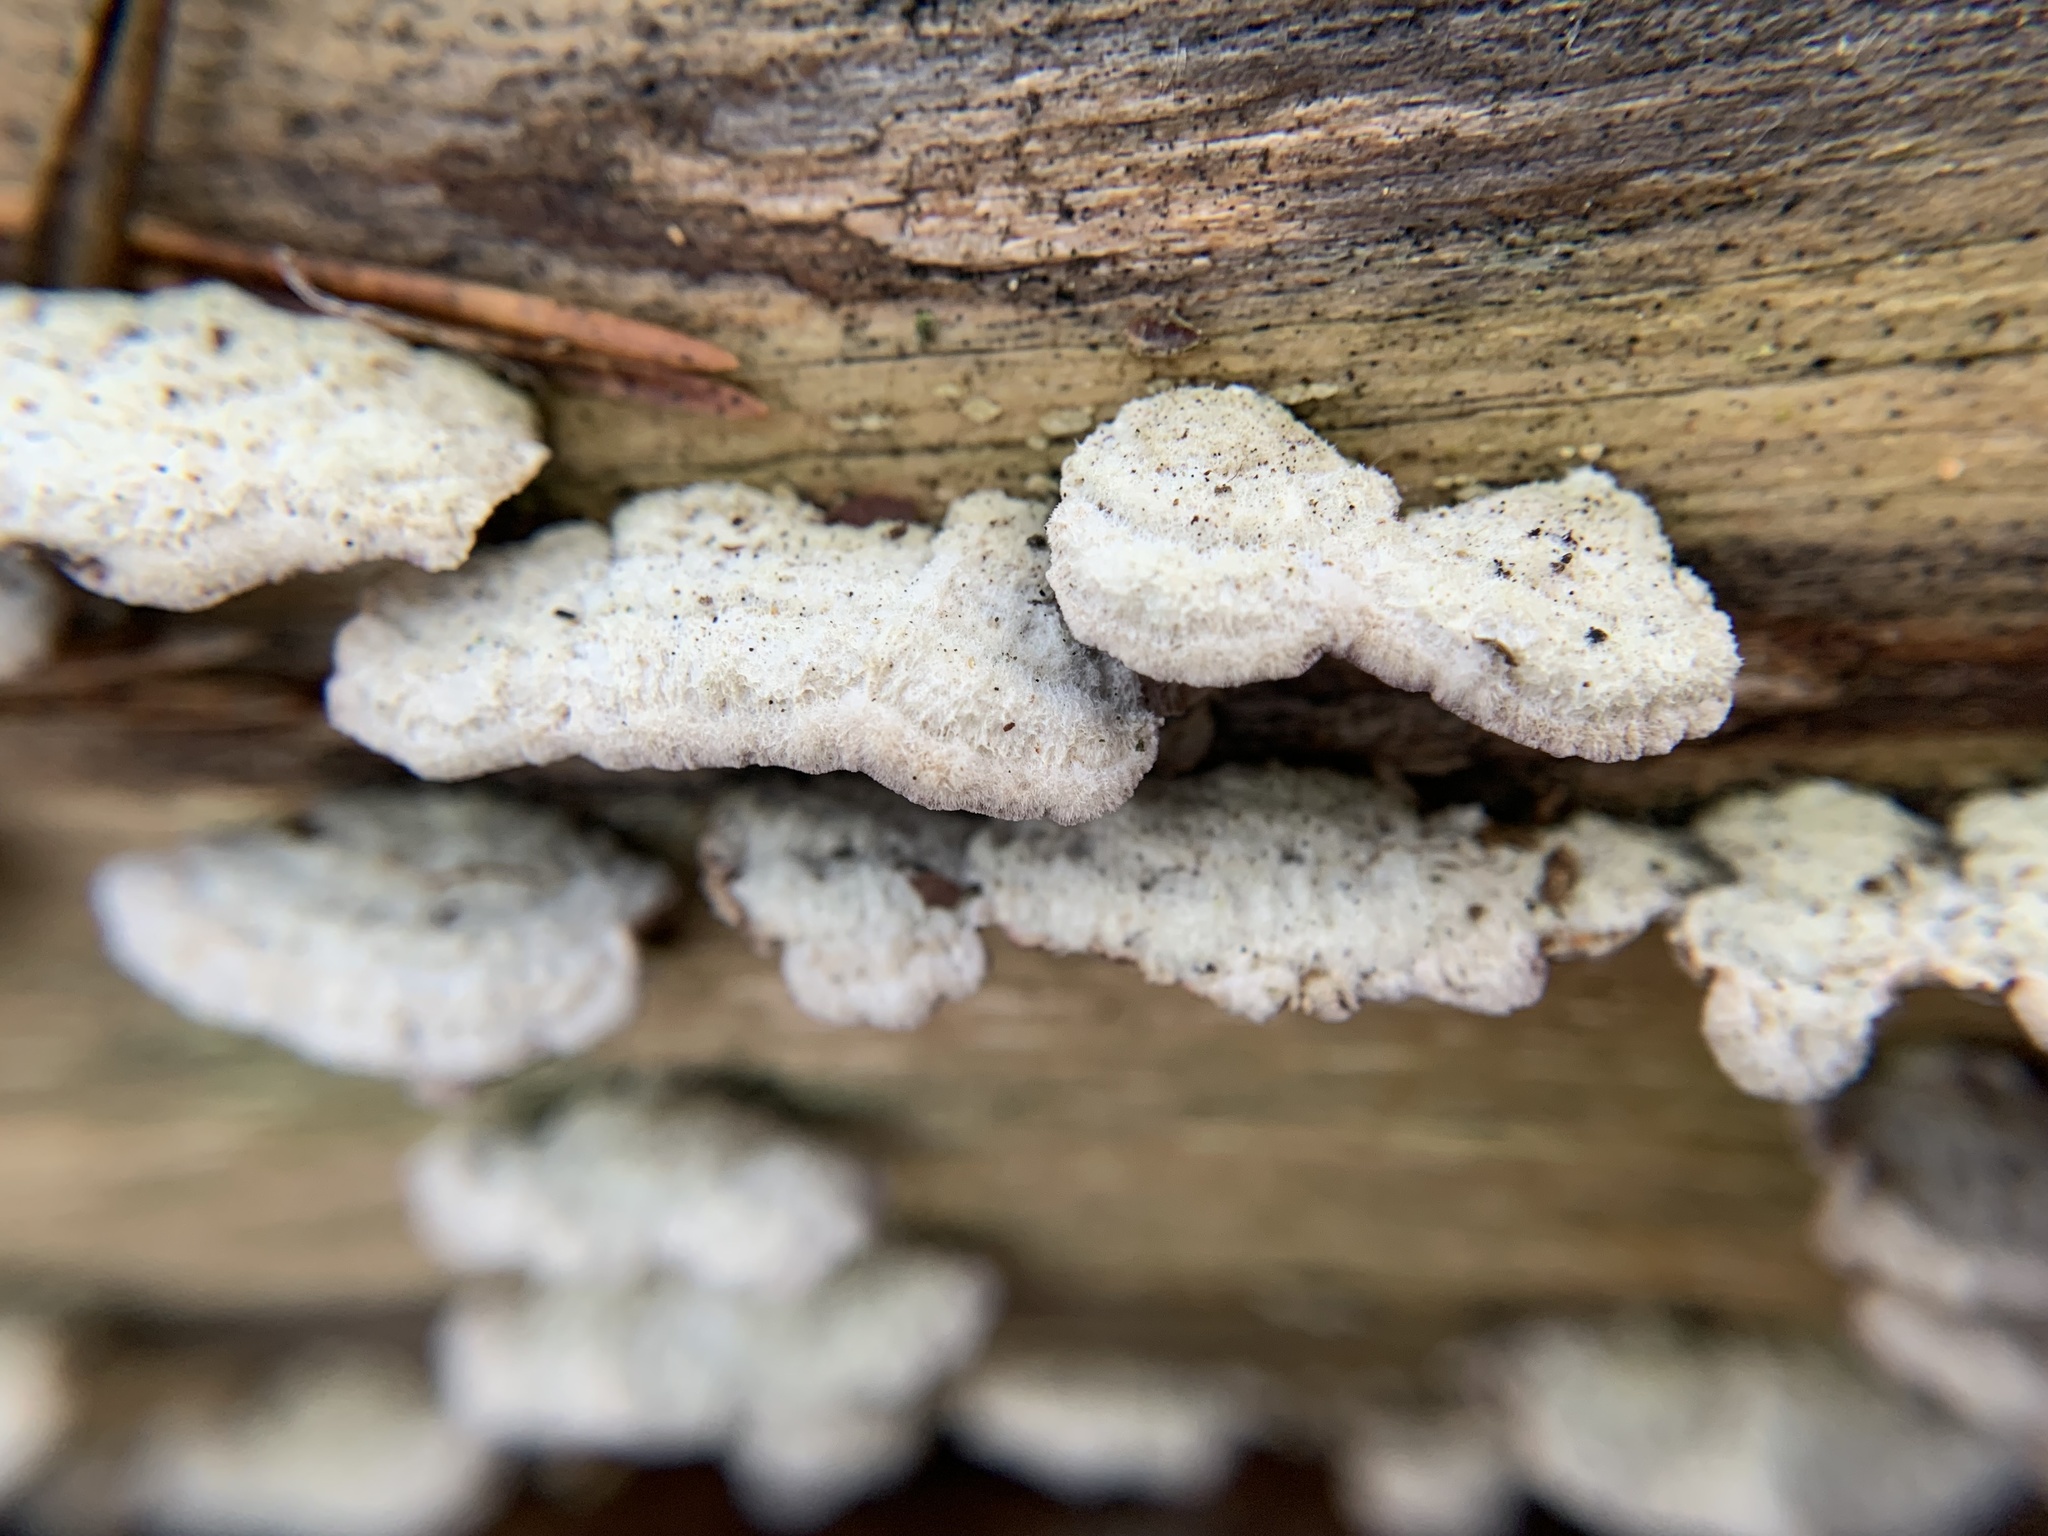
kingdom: Fungi
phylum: Basidiomycota
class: Agaricomycetes
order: Hymenochaetales
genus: Trichaptum
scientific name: Trichaptum biforme
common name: Violet-toothed polypore
